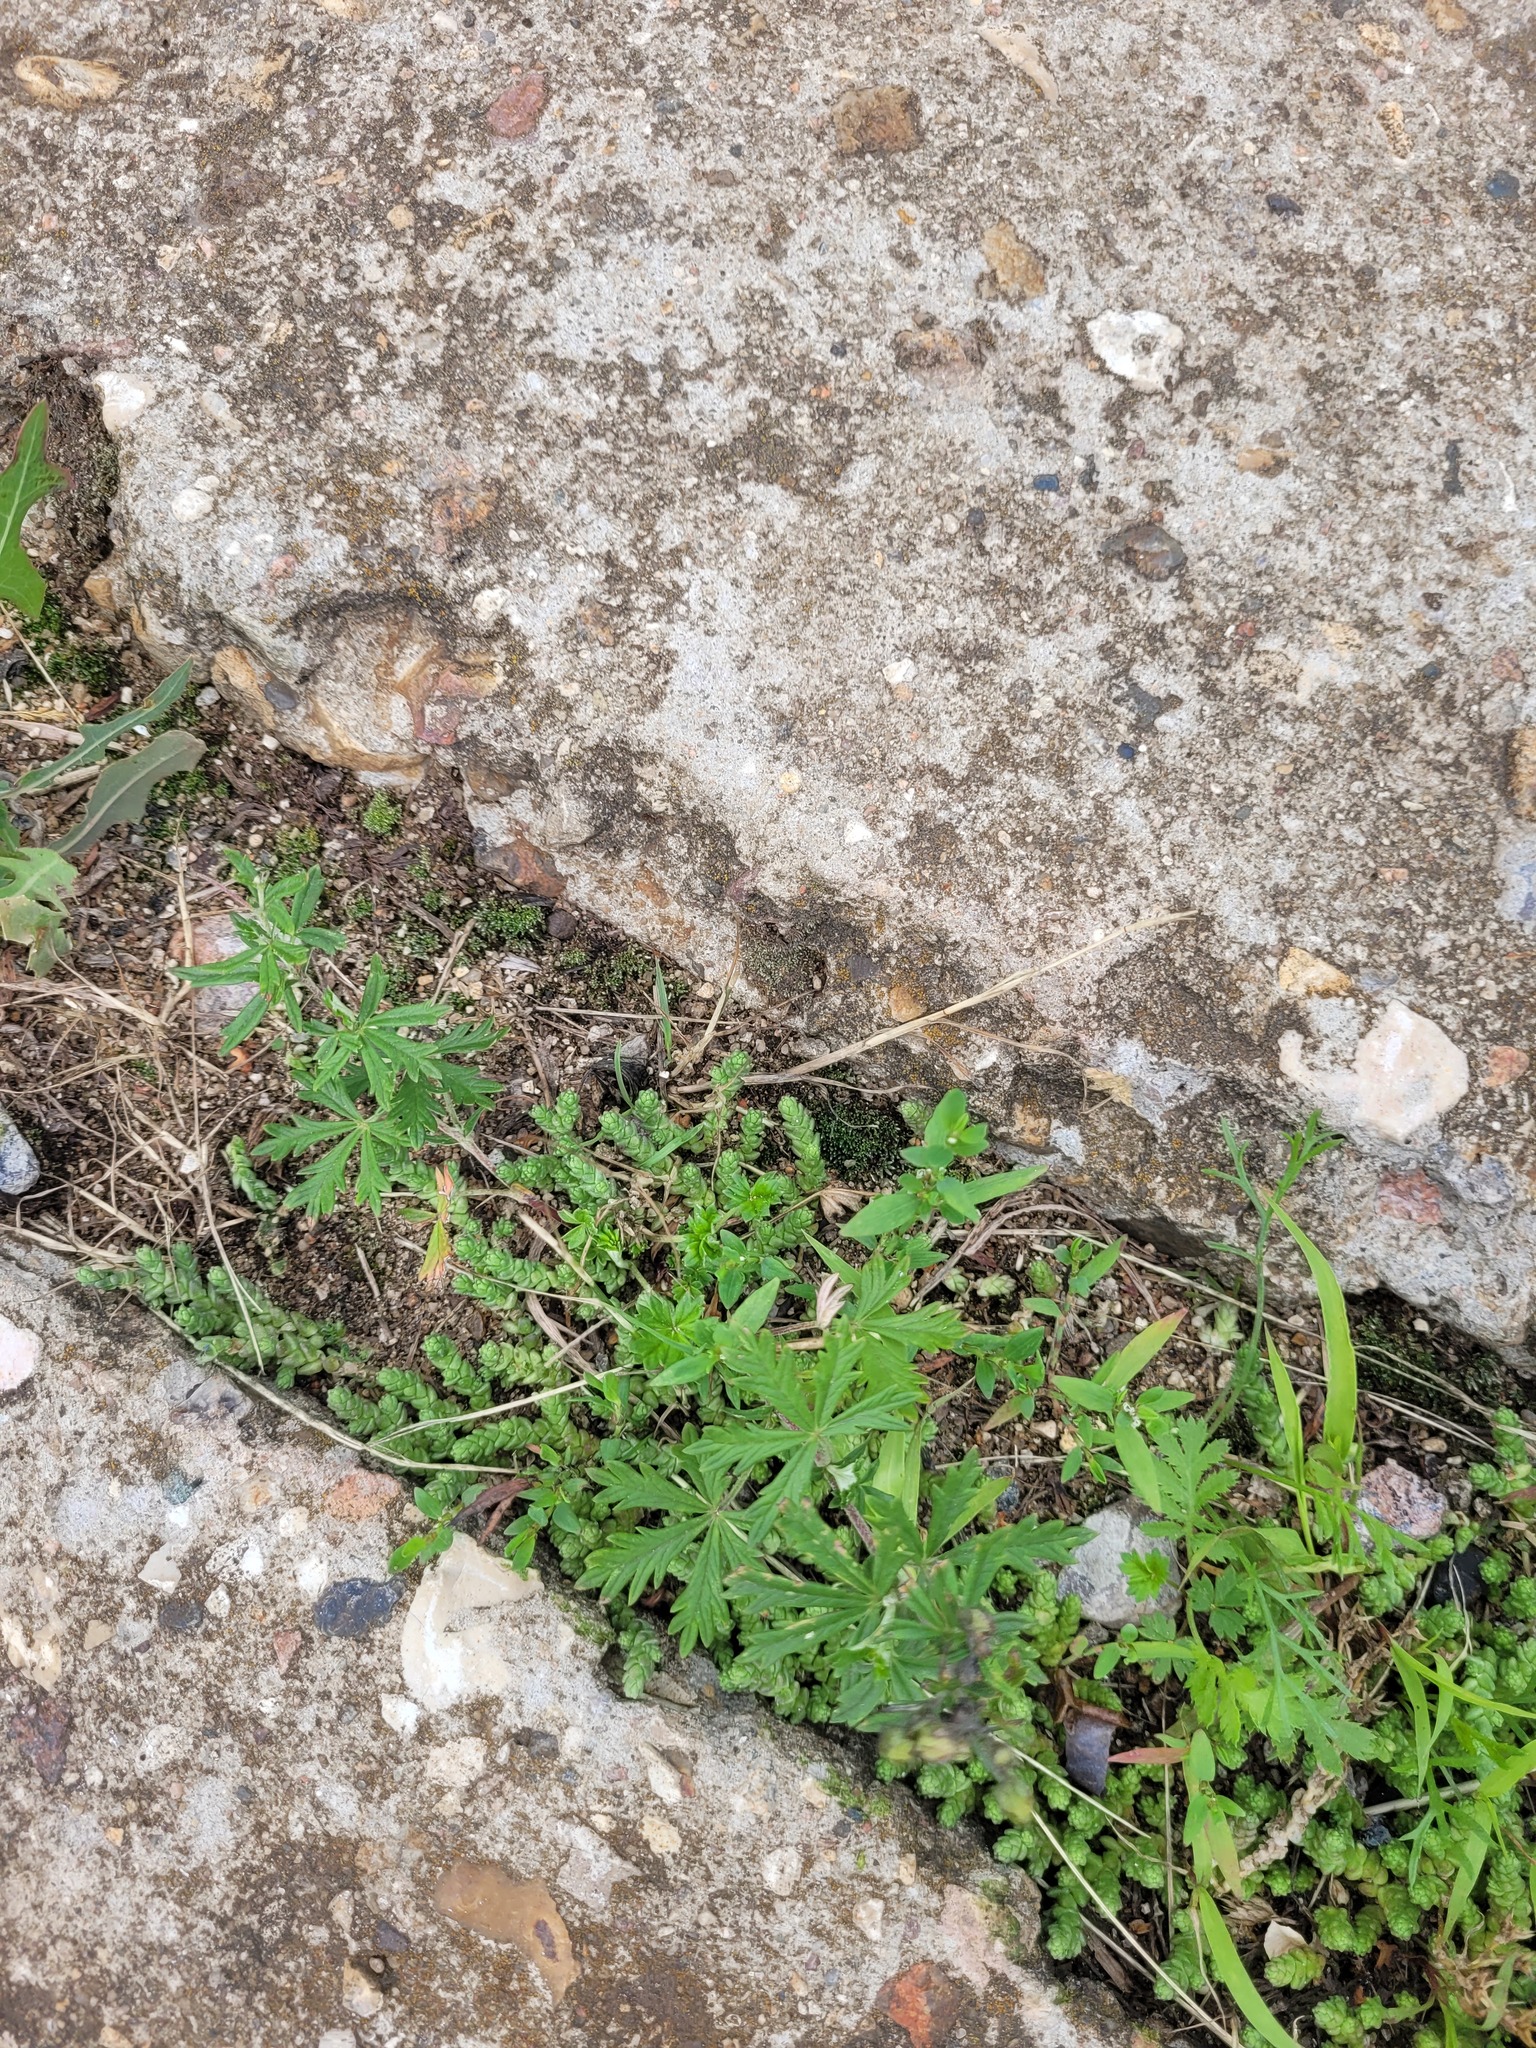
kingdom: Plantae
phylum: Tracheophyta
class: Magnoliopsida
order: Rosales
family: Rosaceae
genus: Potentilla
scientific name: Potentilla argentea
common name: Hoary cinquefoil
